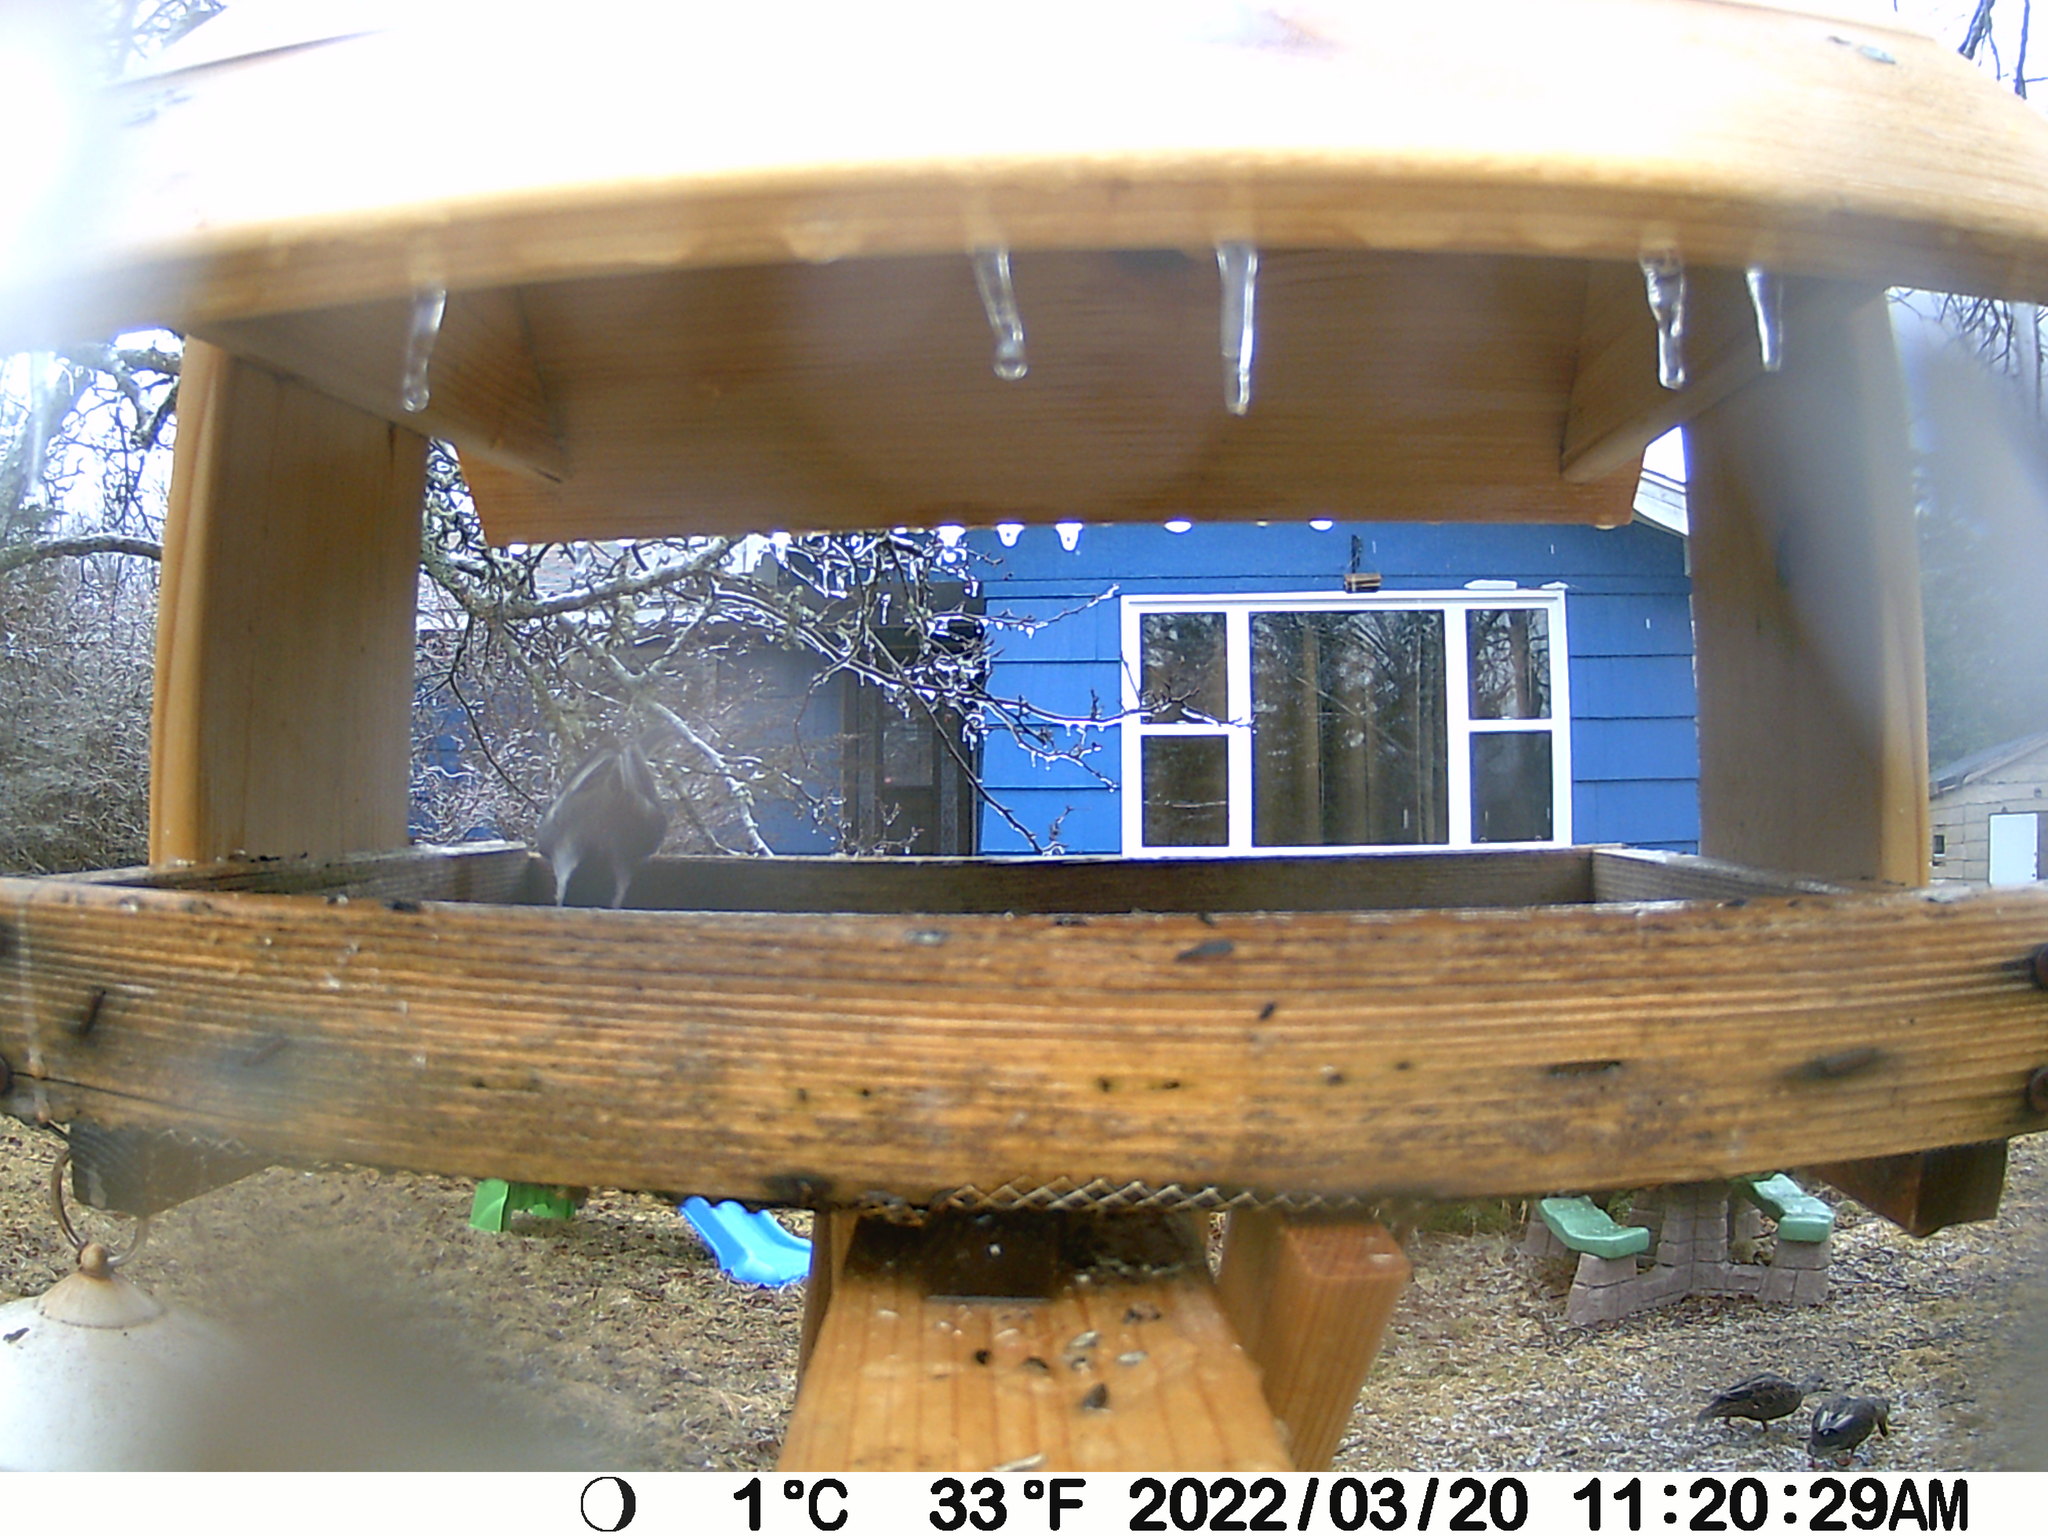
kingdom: Animalia
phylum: Chordata
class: Aves
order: Anseriformes
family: Anatidae
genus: Anas
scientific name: Anas rubripes
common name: American black duck
